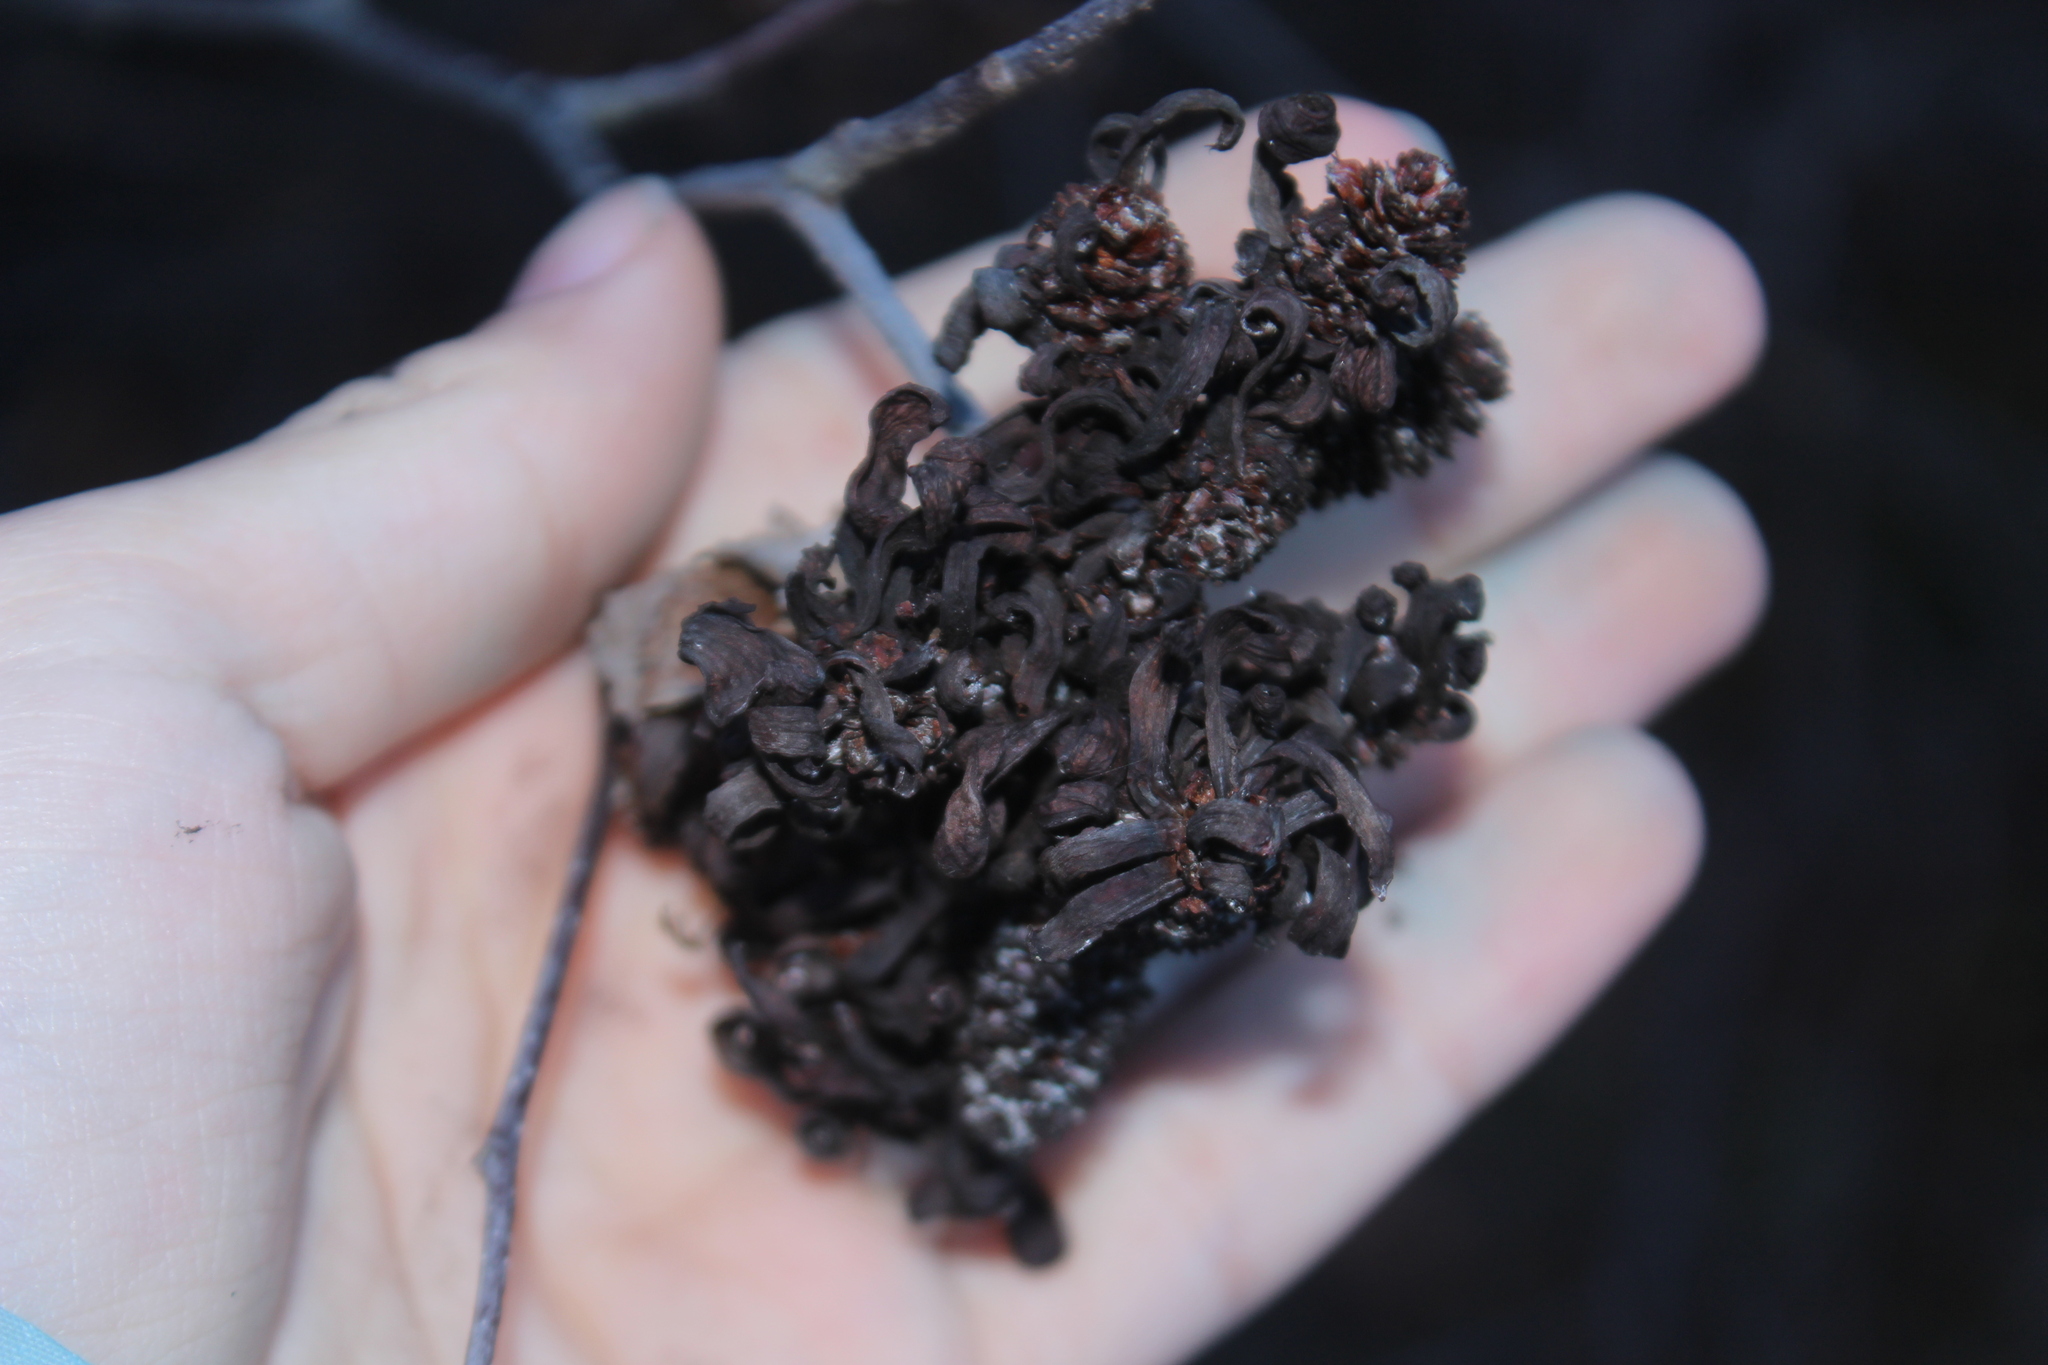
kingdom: Fungi
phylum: Ascomycota
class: Taphrinomycetes
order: Taphrinales
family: Taphrinaceae
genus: Taphrina
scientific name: Taphrina robinsoniana
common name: Eastern american alder tongue gall fungus
